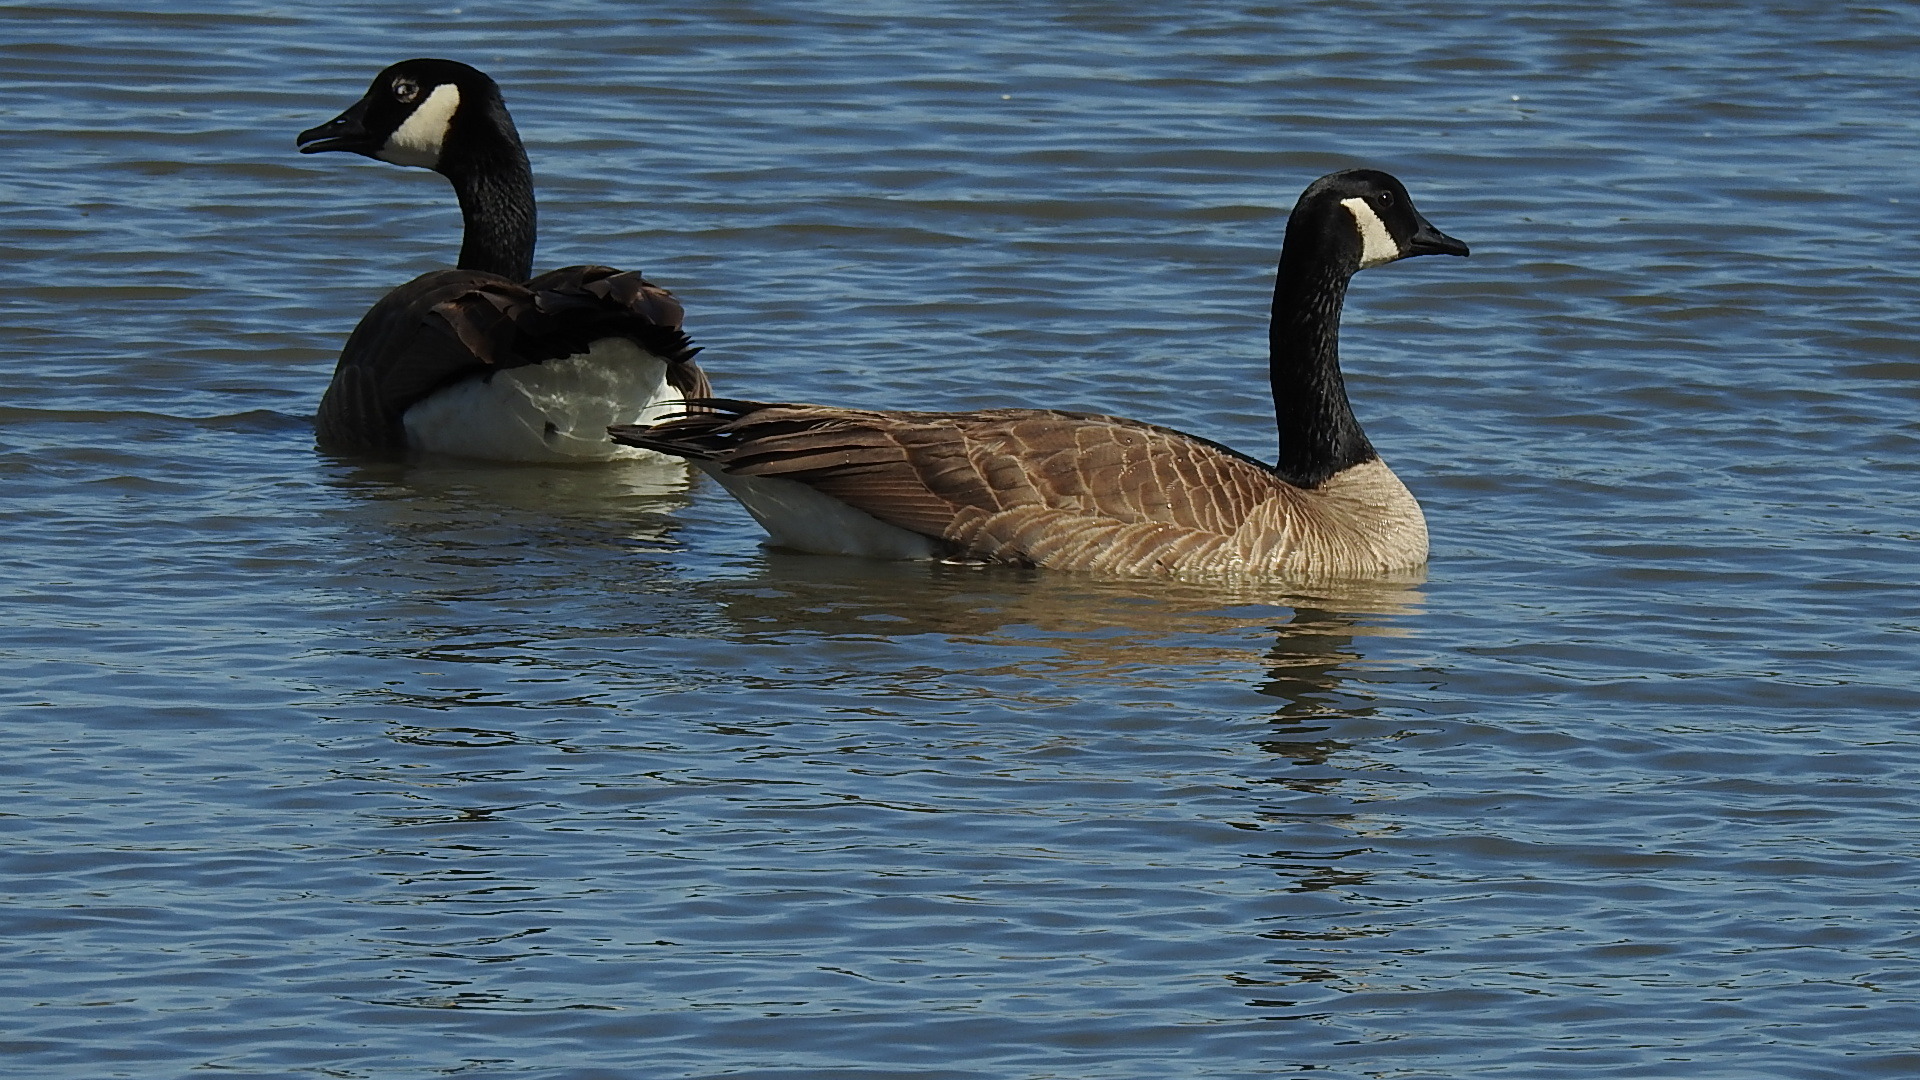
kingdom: Animalia
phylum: Chordata
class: Aves
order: Anseriformes
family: Anatidae
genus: Branta
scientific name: Branta canadensis
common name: Canada goose
